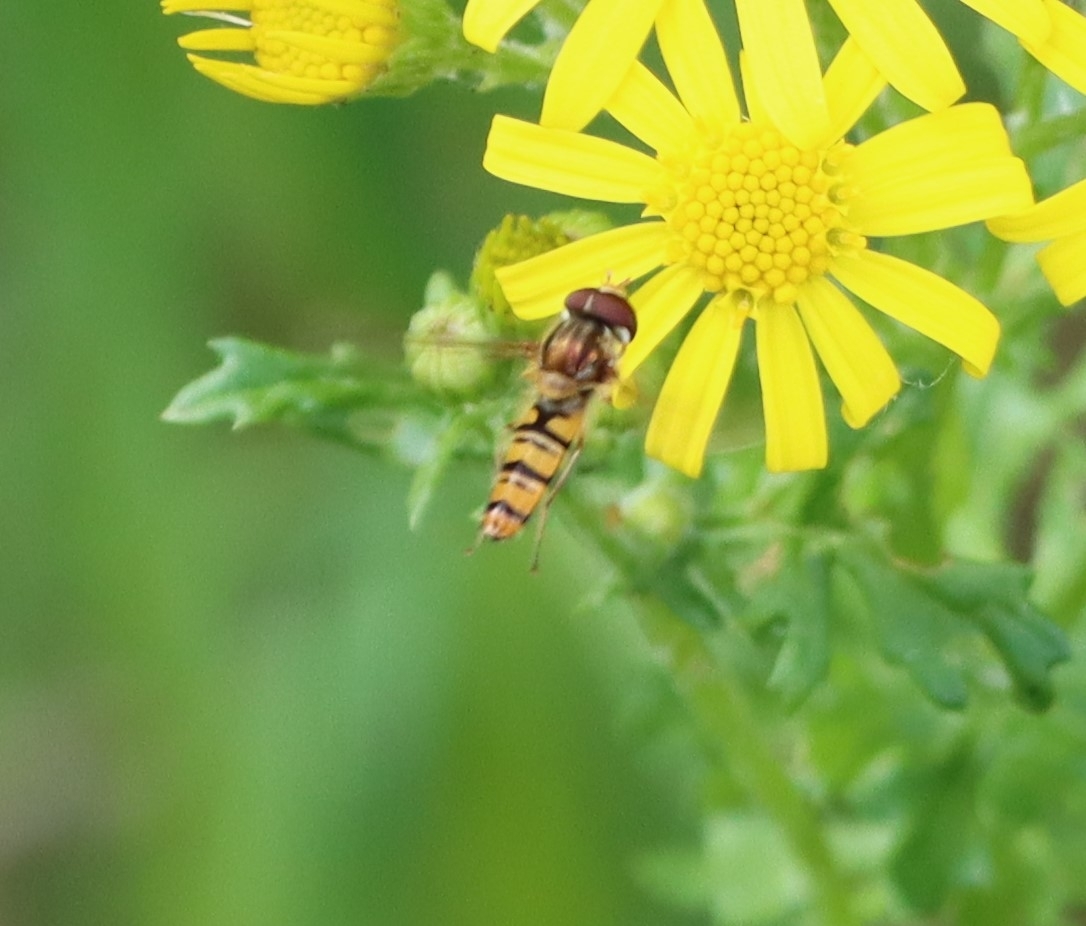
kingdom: Animalia
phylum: Arthropoda
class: Insecta
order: Diptera
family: Syrphidae
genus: Episyrphus
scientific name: Episyrphus balteatus
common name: Marmalade hoverfly
